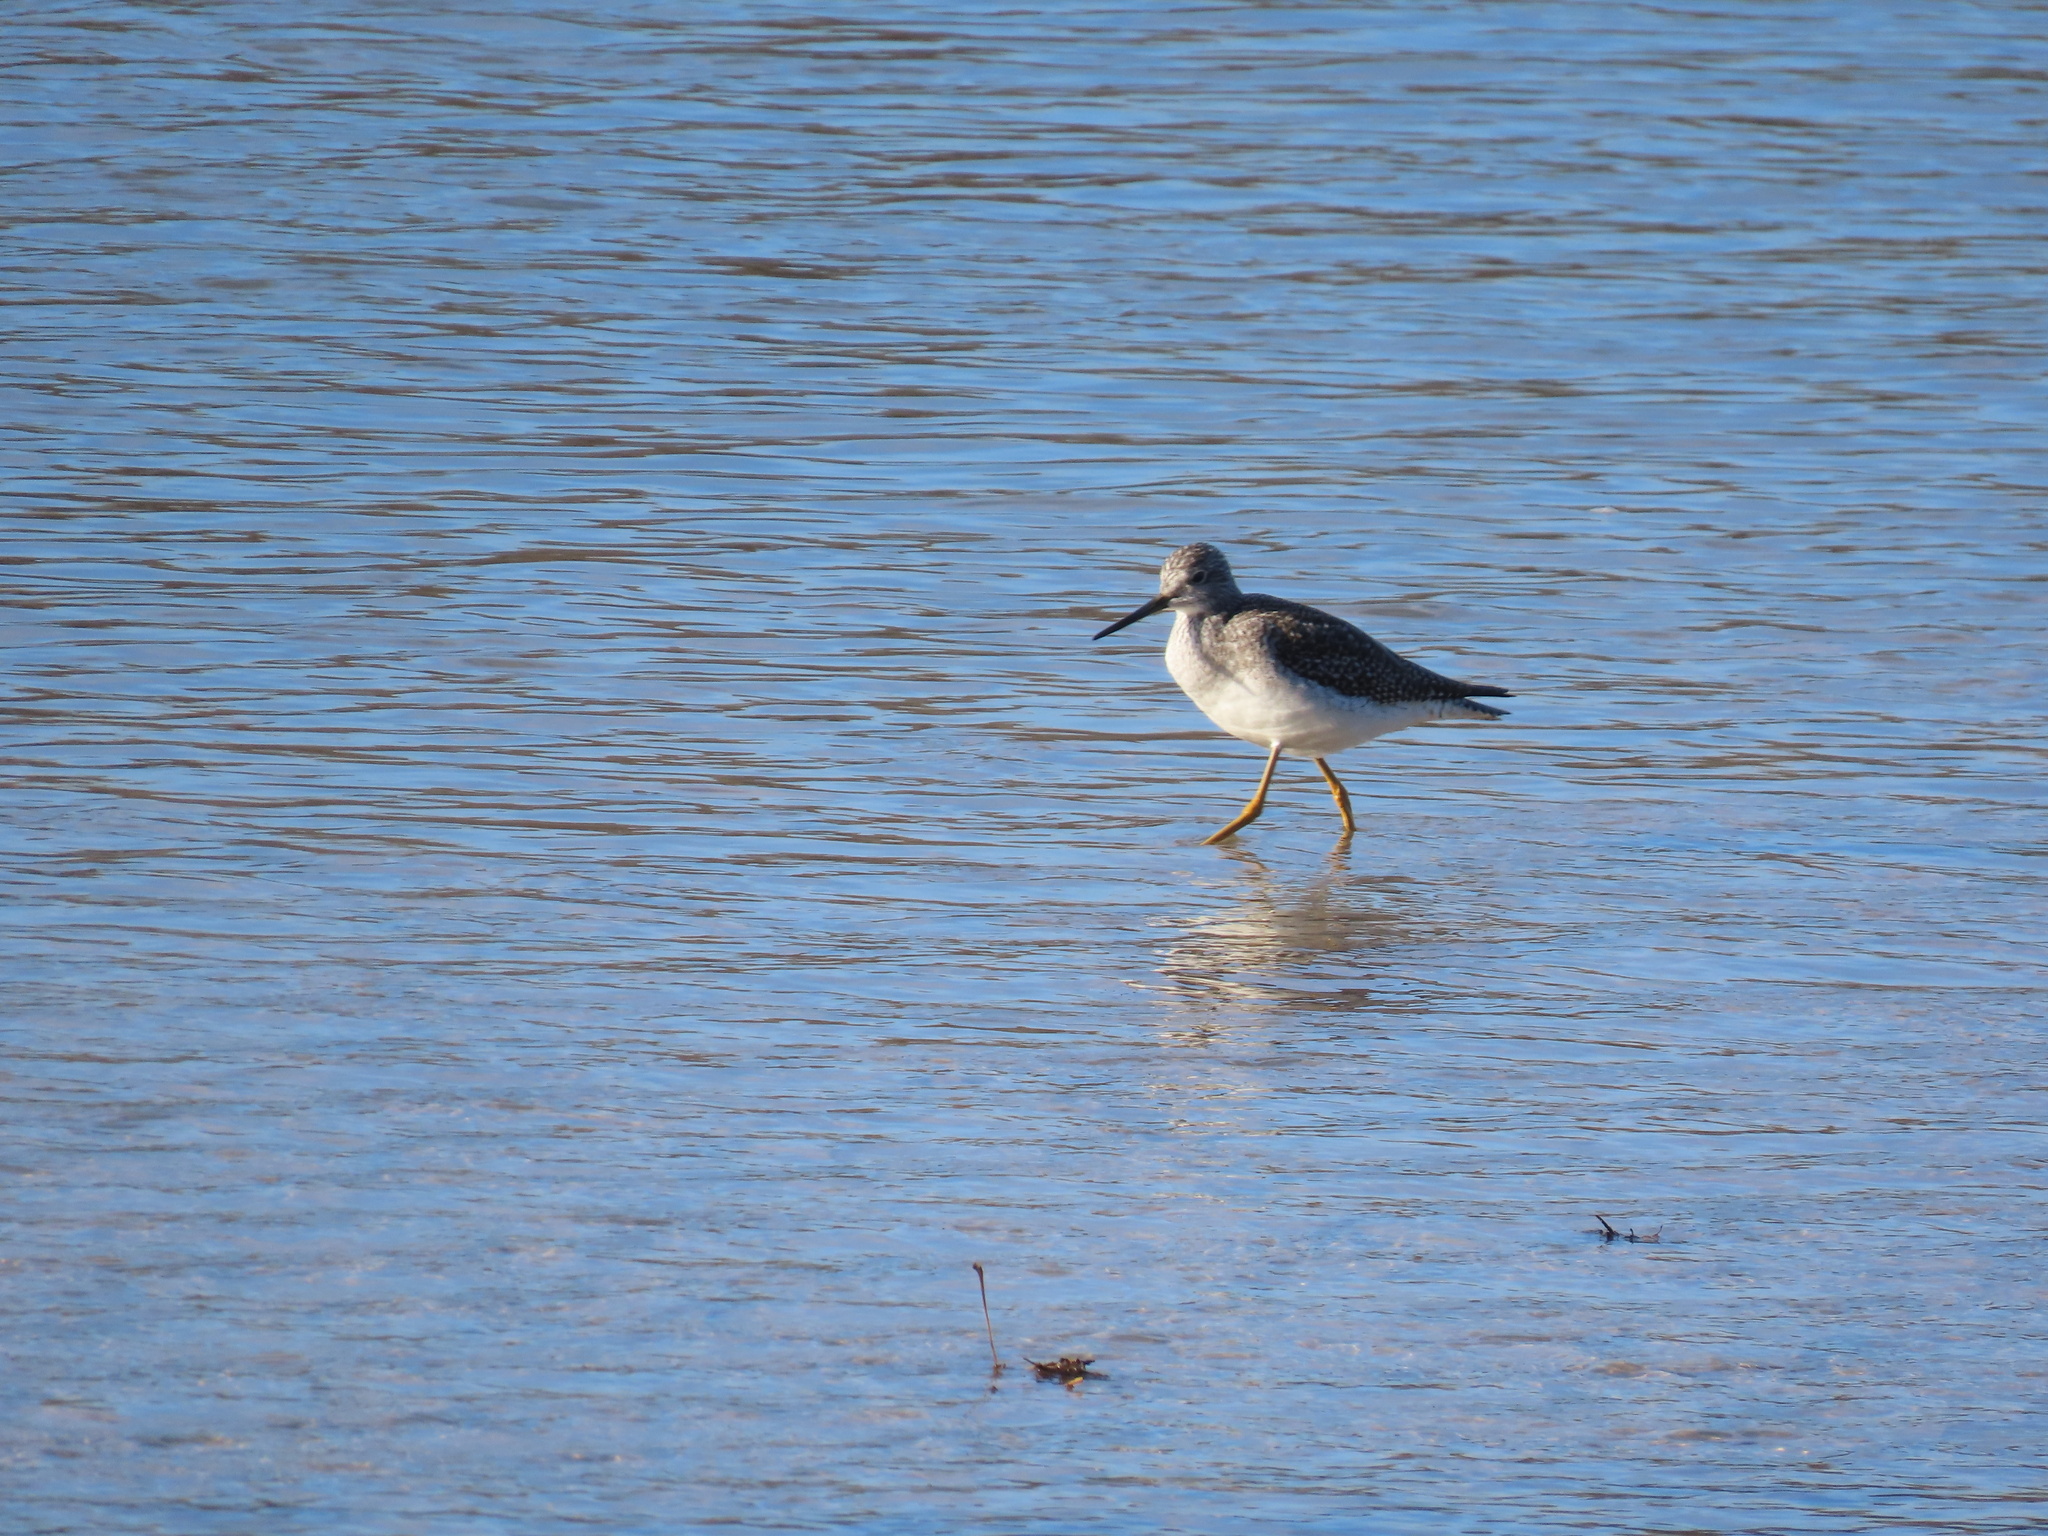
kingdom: Animalia
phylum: Chordata
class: Aves
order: Charadriiformes
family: Scolopacidae
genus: Tringa
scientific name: Tringa melanoleuca
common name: Greater yellowlegs
